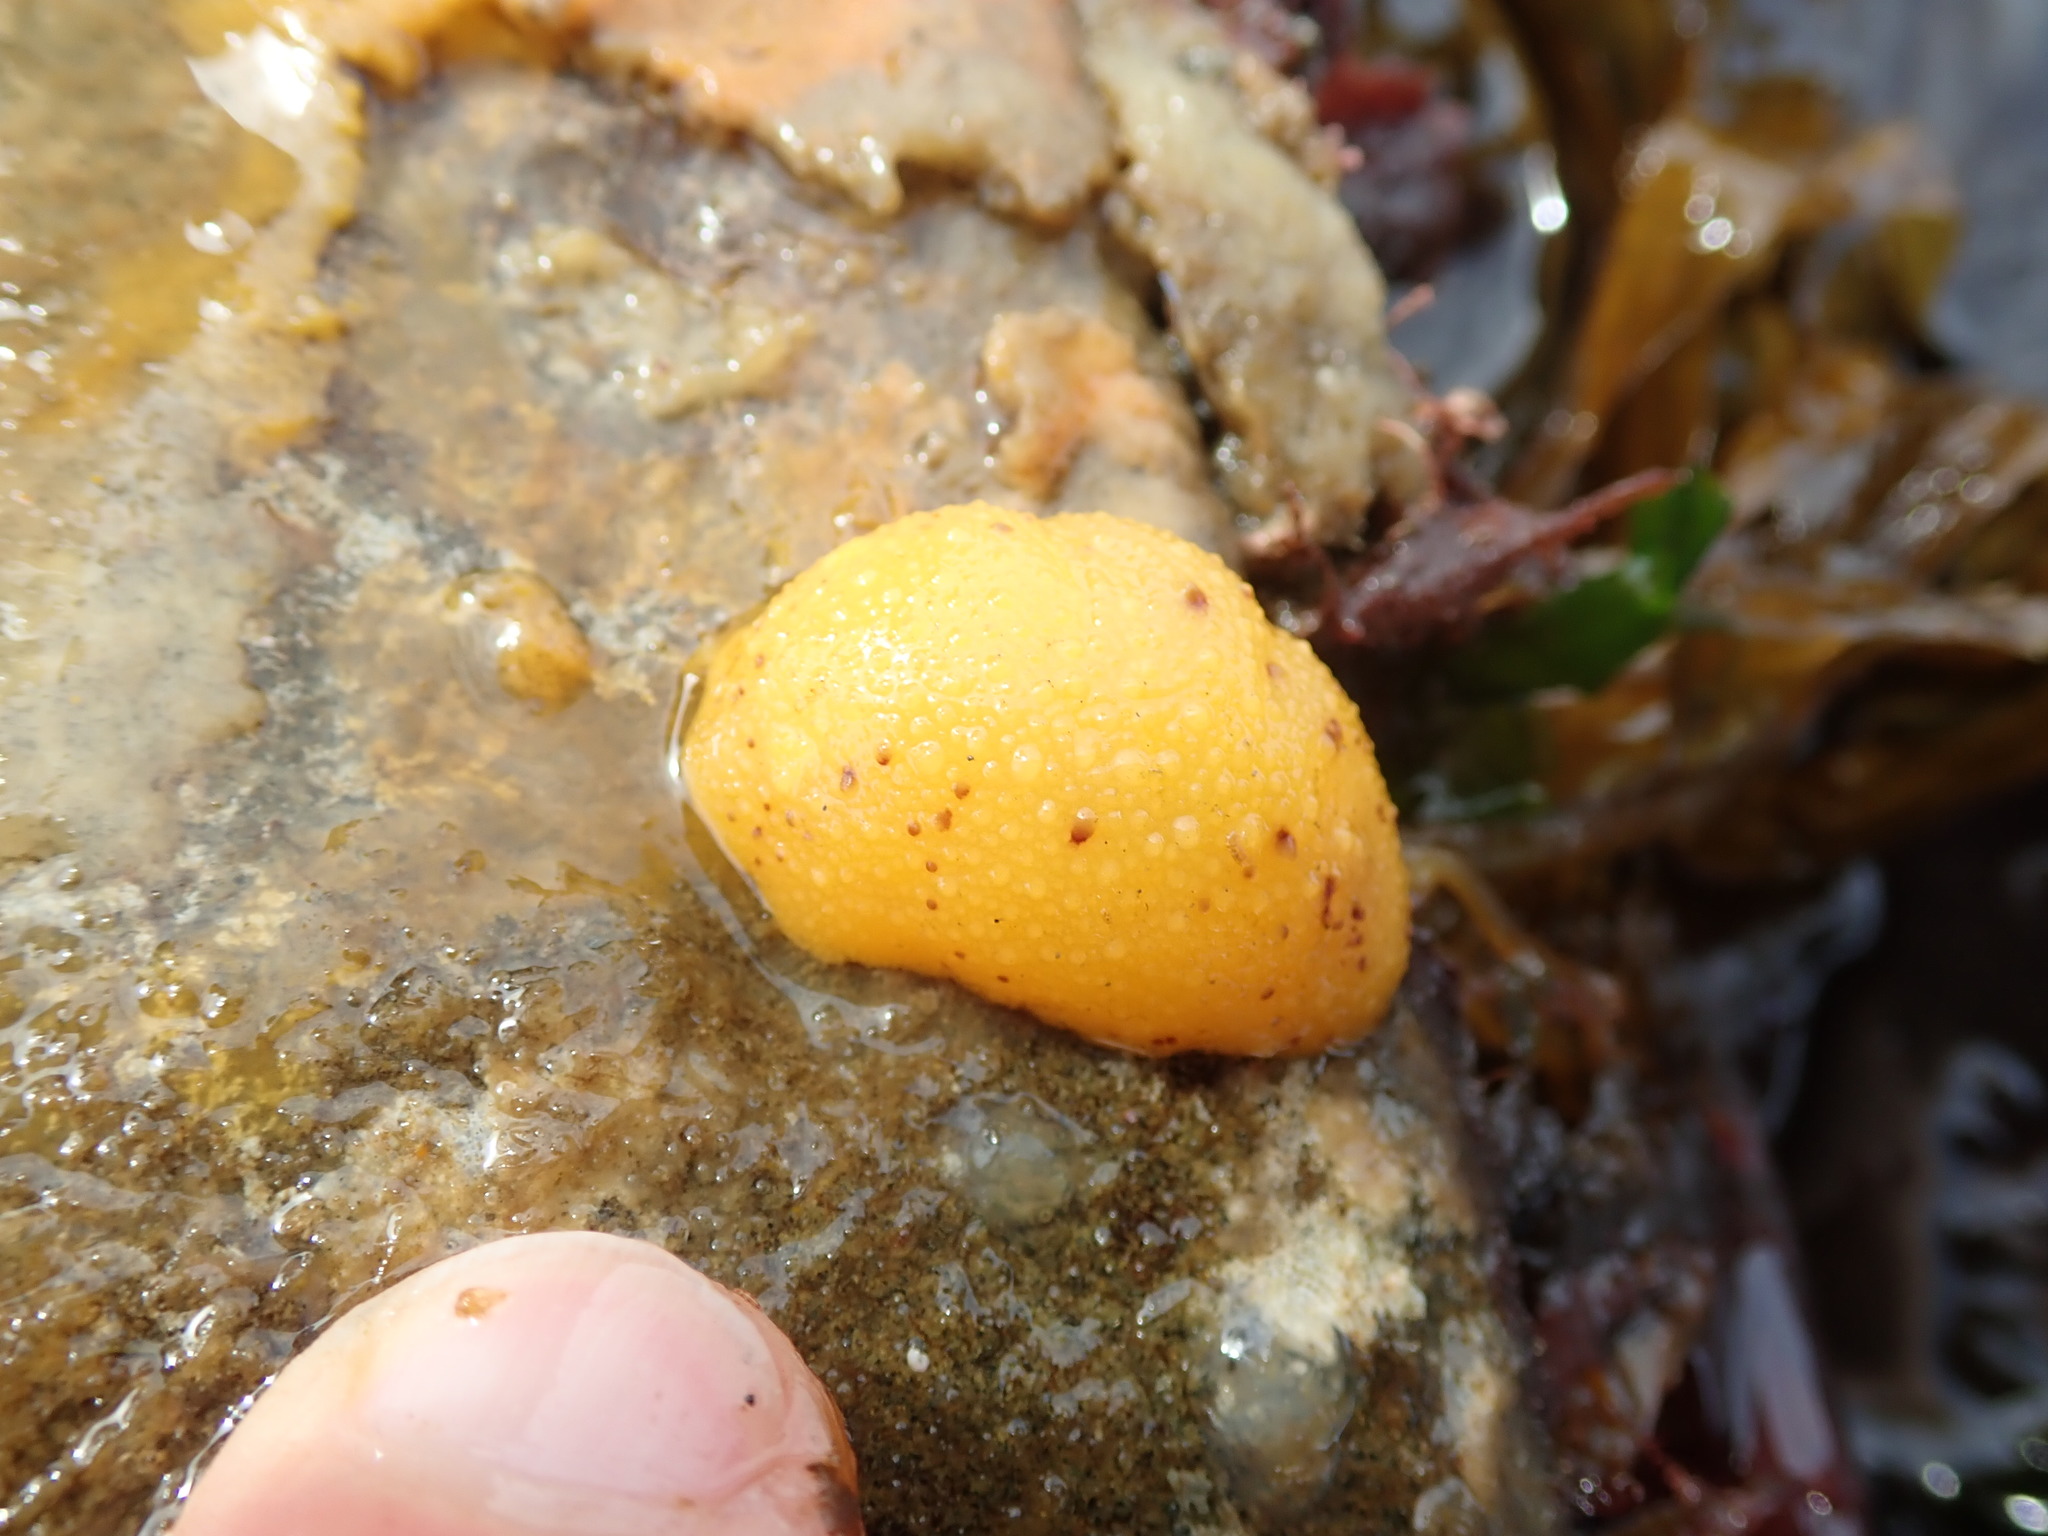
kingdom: Animalia
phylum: Mollusca
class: Gastropoda
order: Nudibranchia
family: Dorididae
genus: Doris
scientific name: Doris montereyensis
